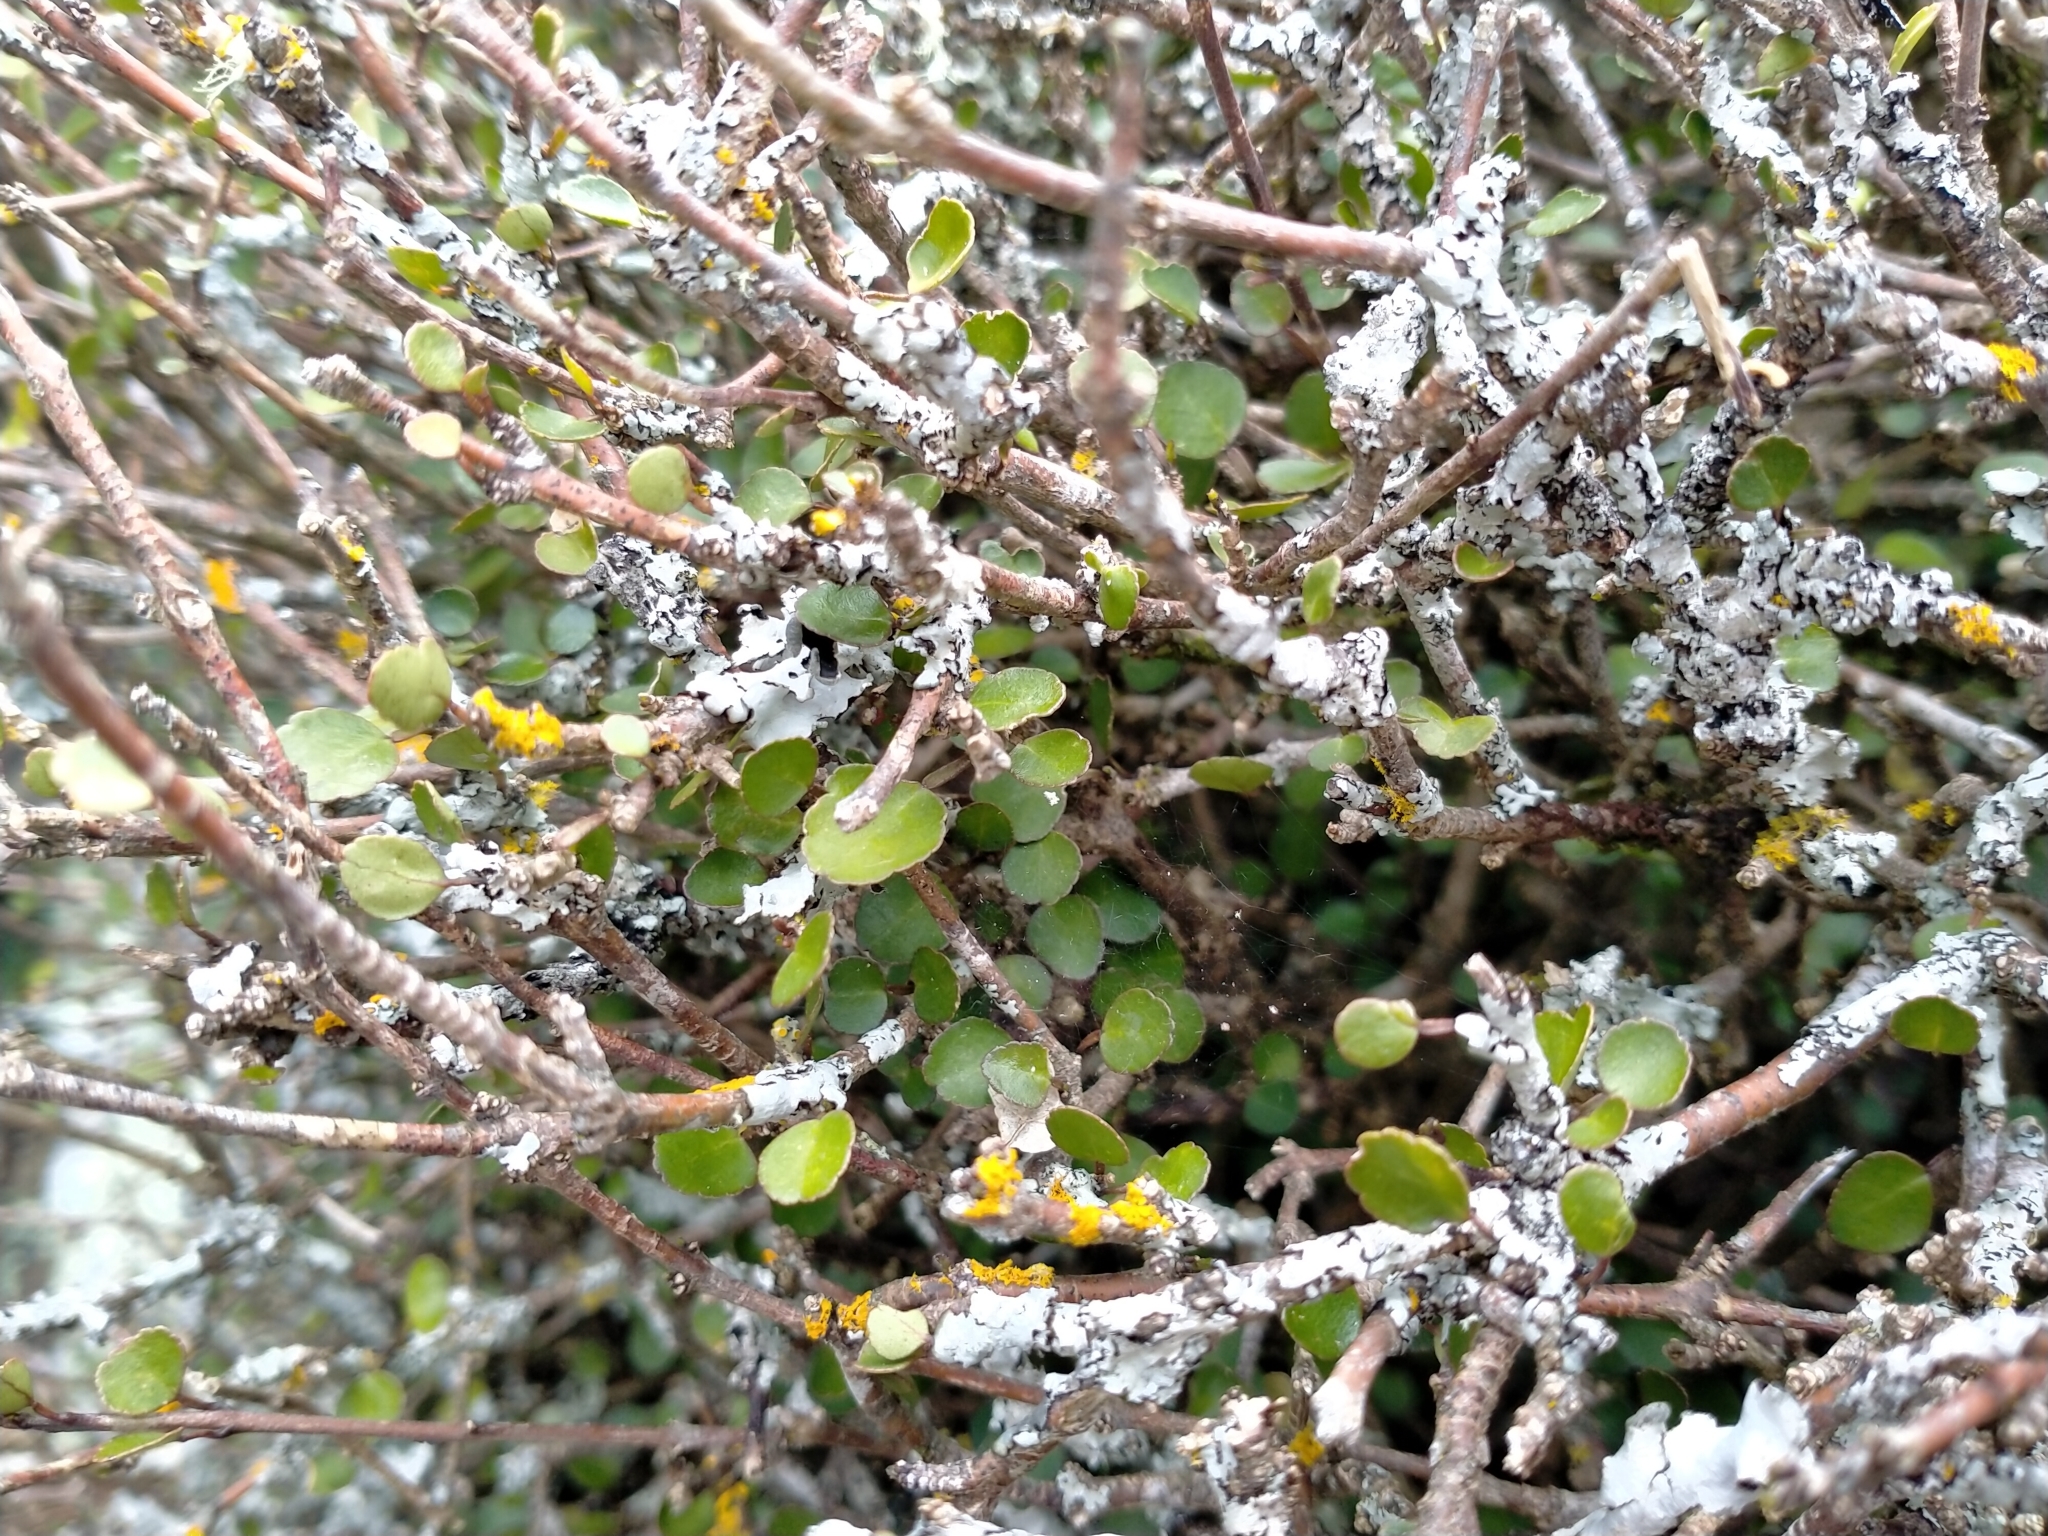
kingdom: Plantae
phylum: Tracheophyta
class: Magnoliopsida
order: Sapindales
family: Rutaceae
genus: Melicope
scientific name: Melicope simplex
